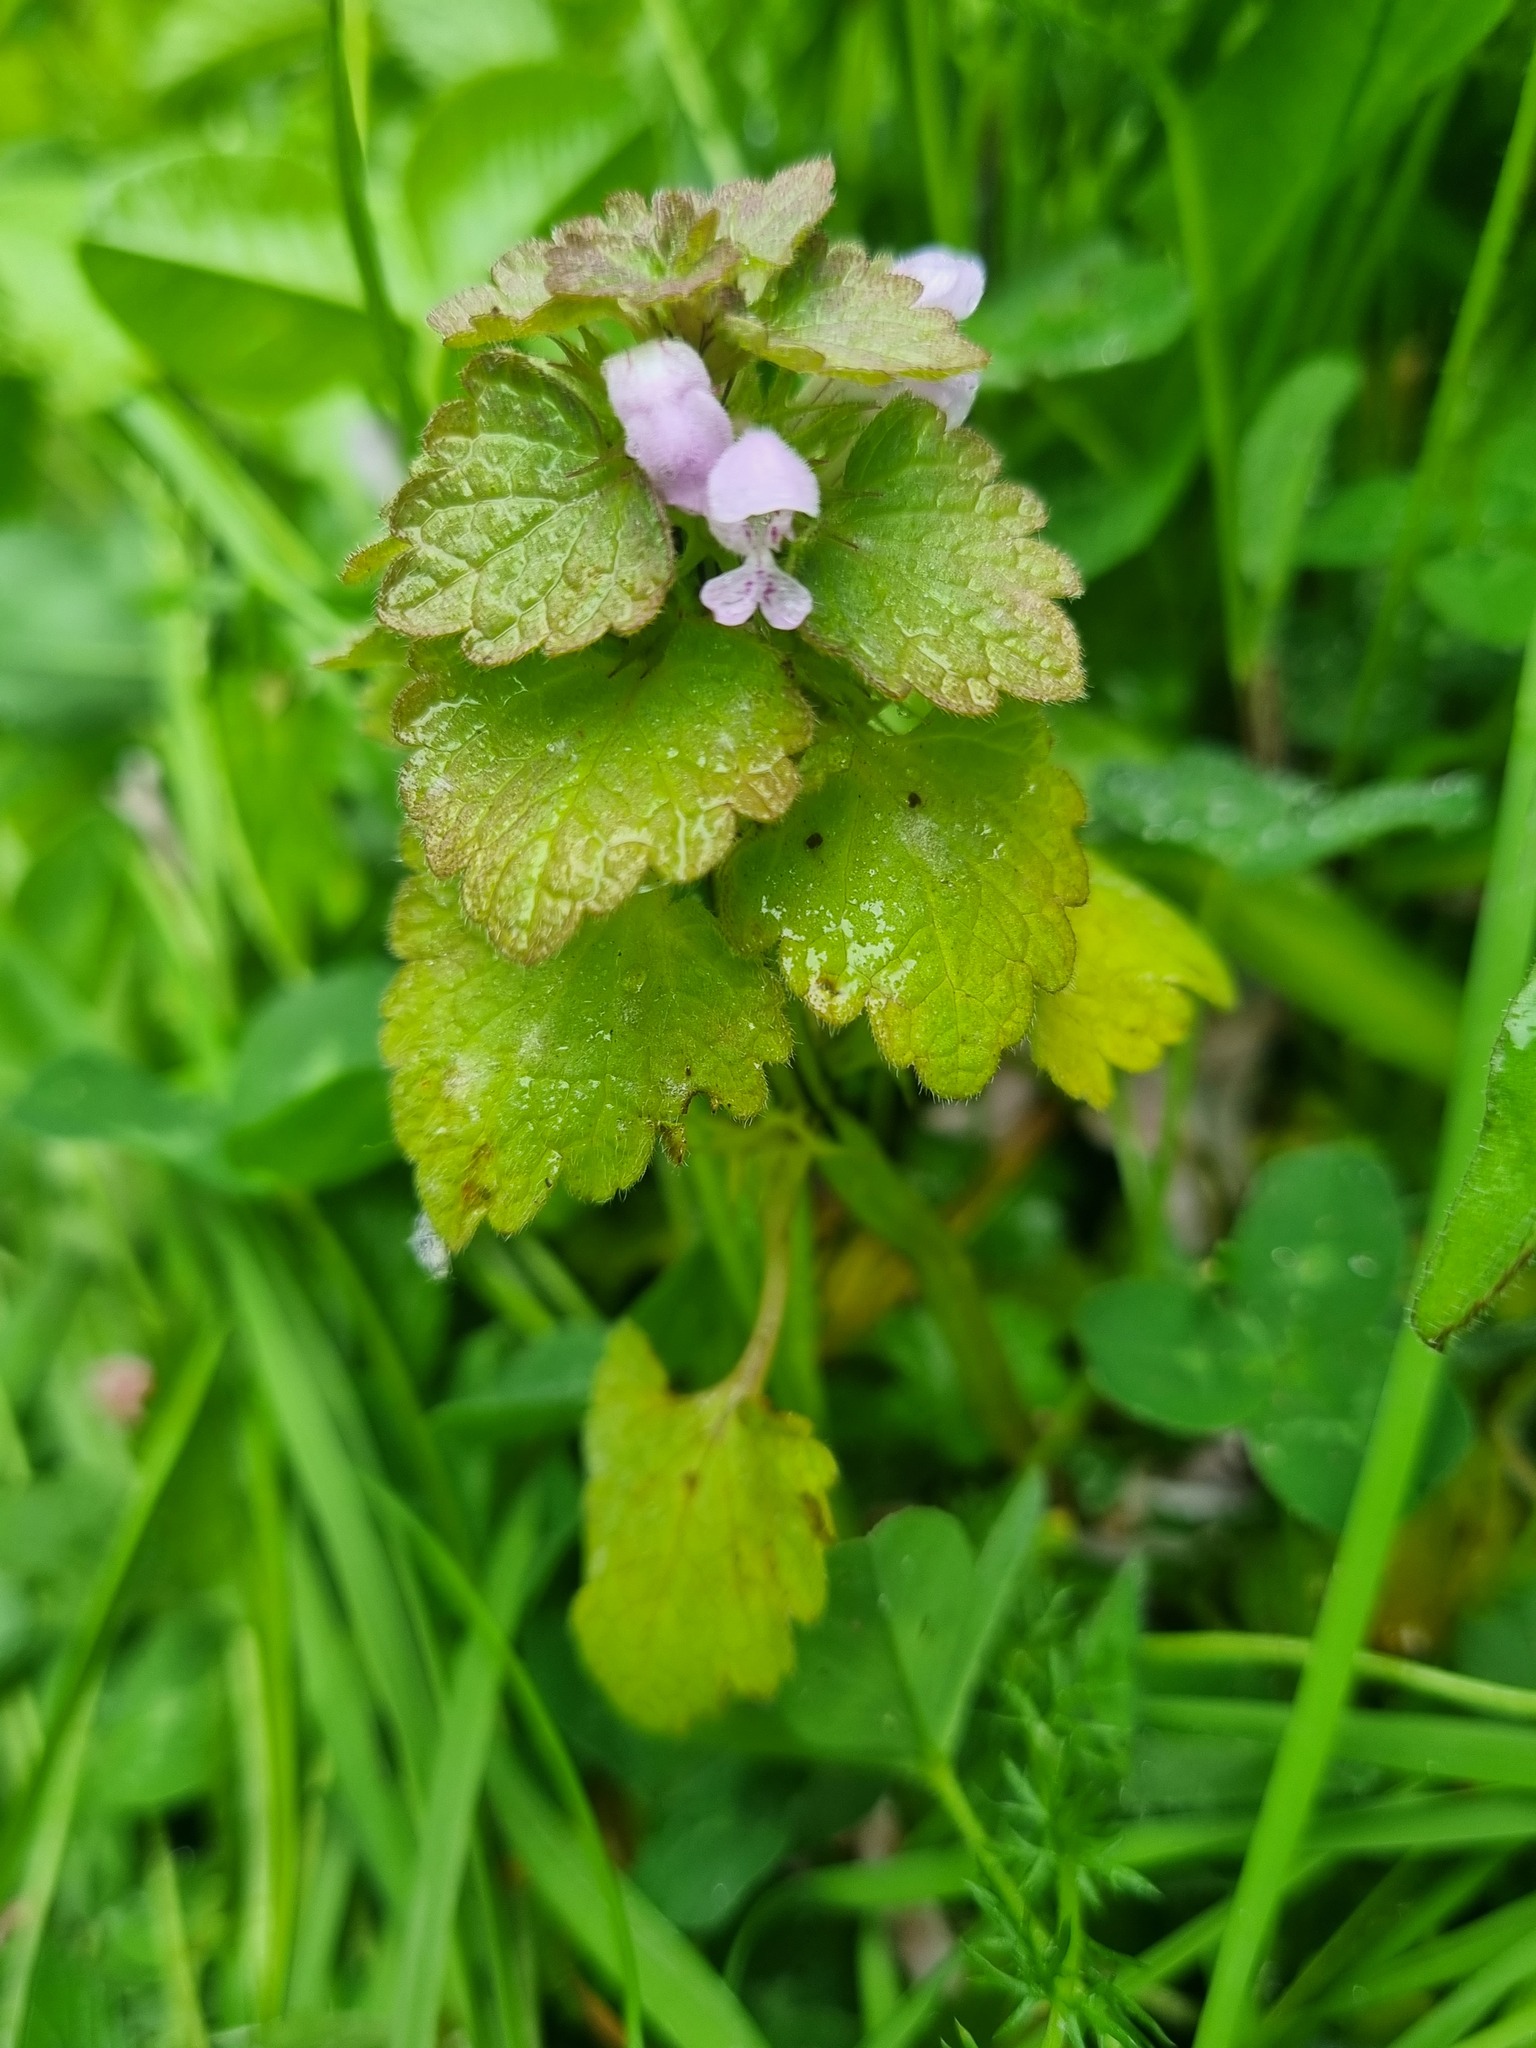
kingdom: Plantae
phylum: Tracheophyta
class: Magnoliopsida
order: Lamiales
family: Lamiaceae
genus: Lamium
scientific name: Lamium purpureum
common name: Red dead-nettle
